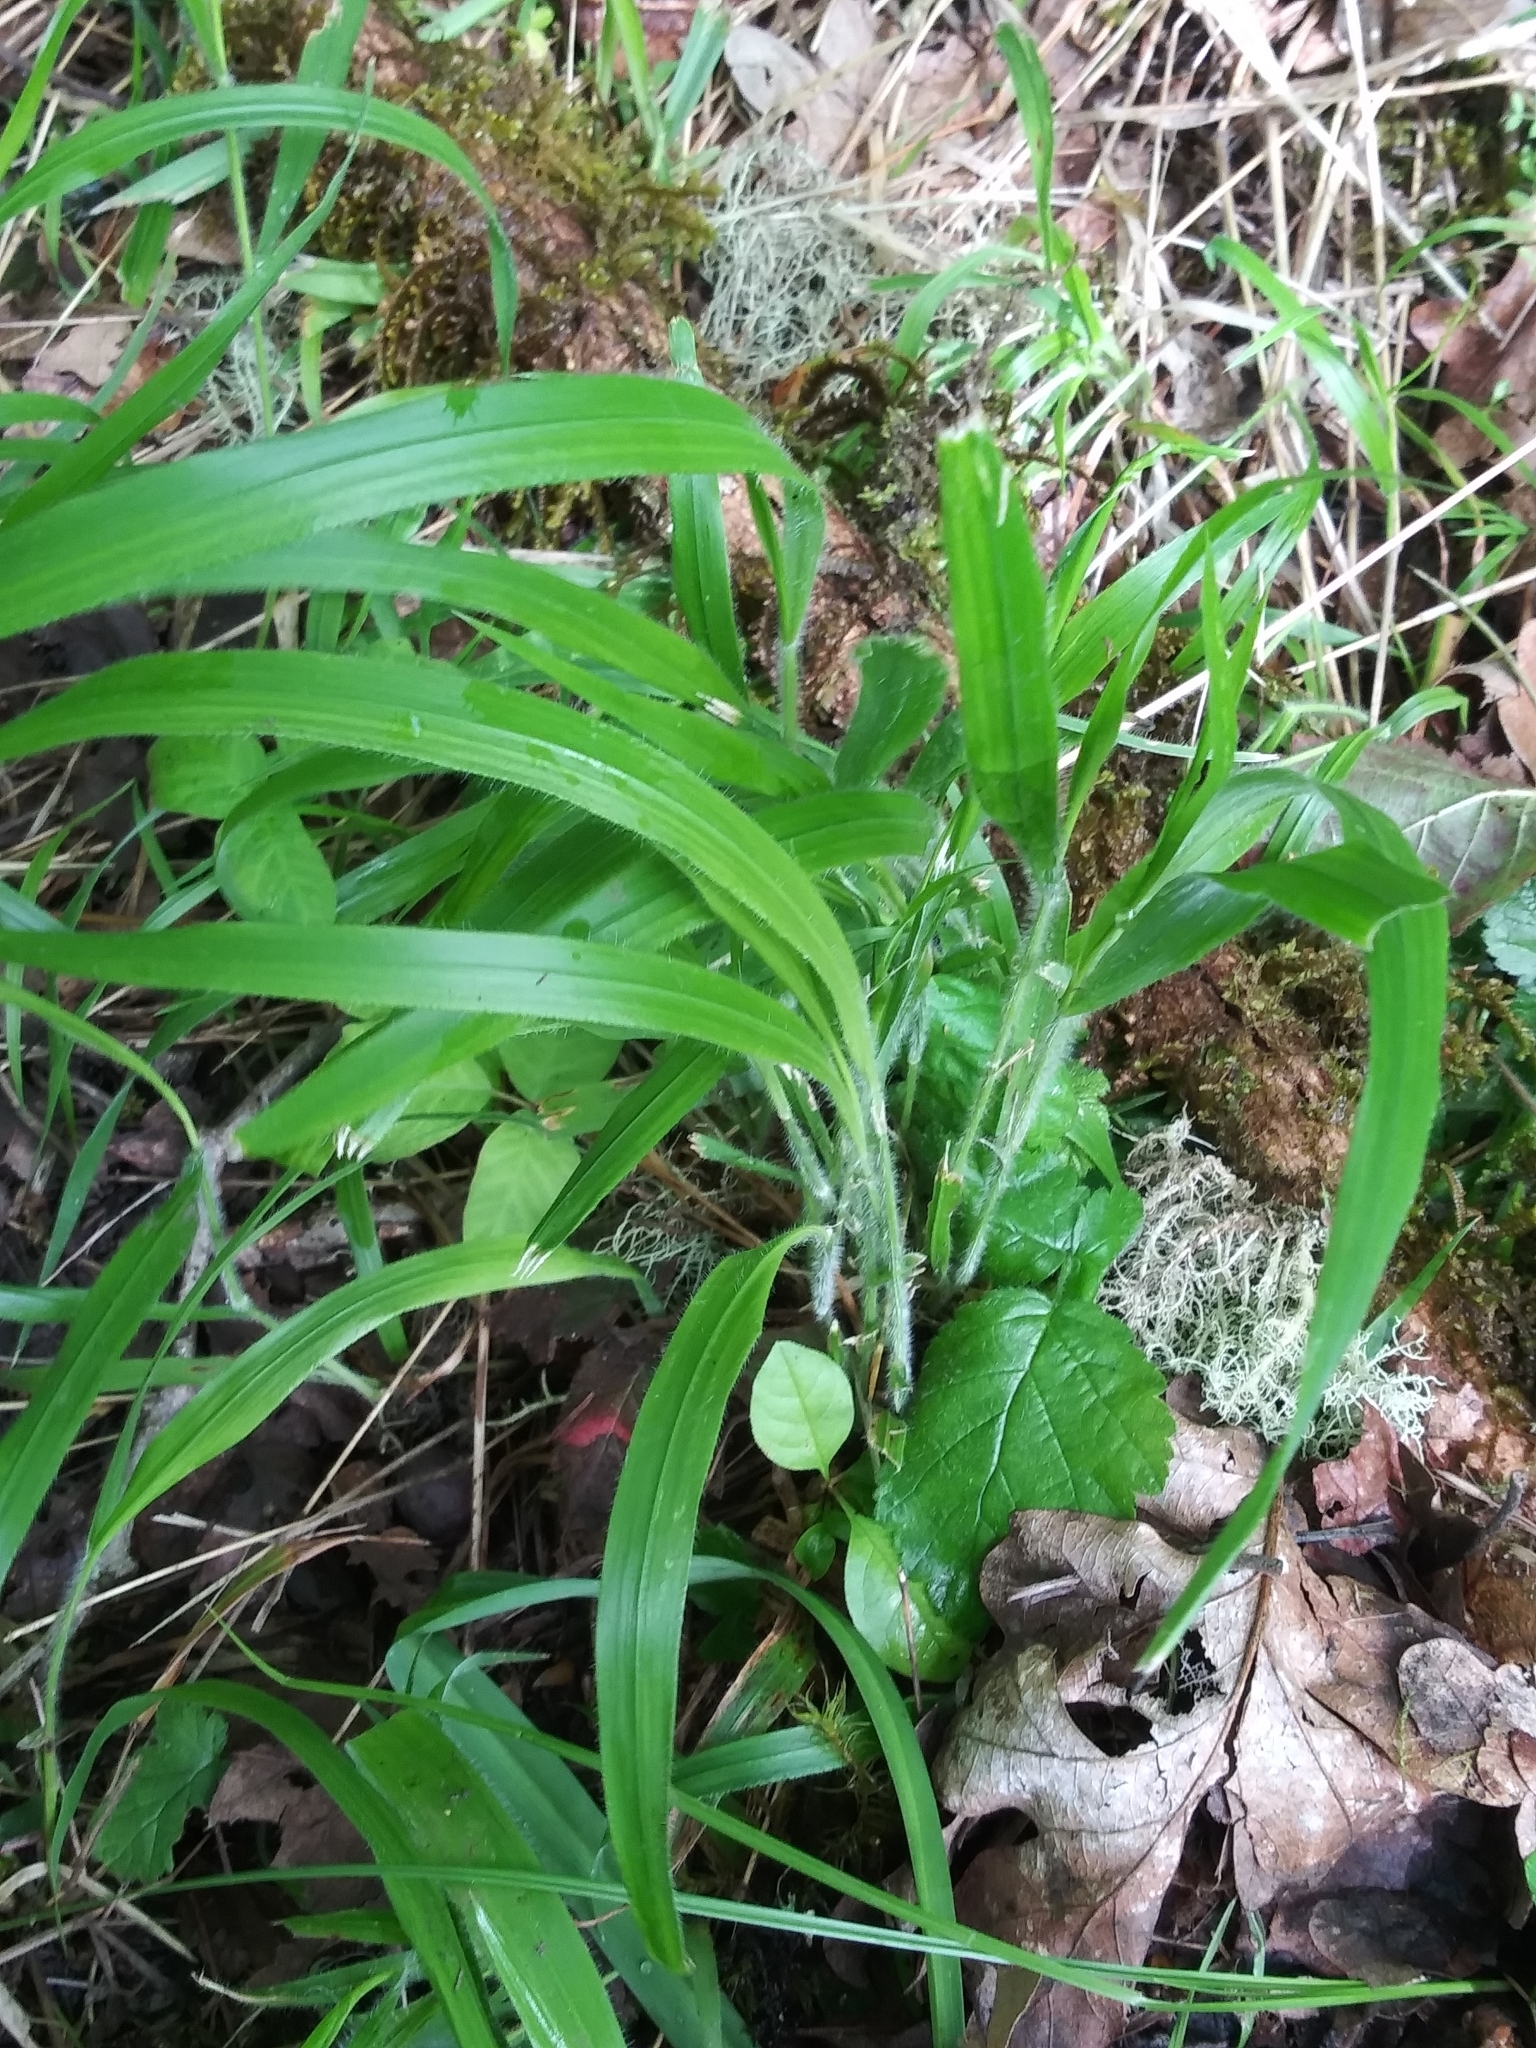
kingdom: Plantae
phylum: Tracheophyta
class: Liliopsida
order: Poales
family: Poaceae
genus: Brachypodium
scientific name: Brachypodium sylvaticum
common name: False-brome
